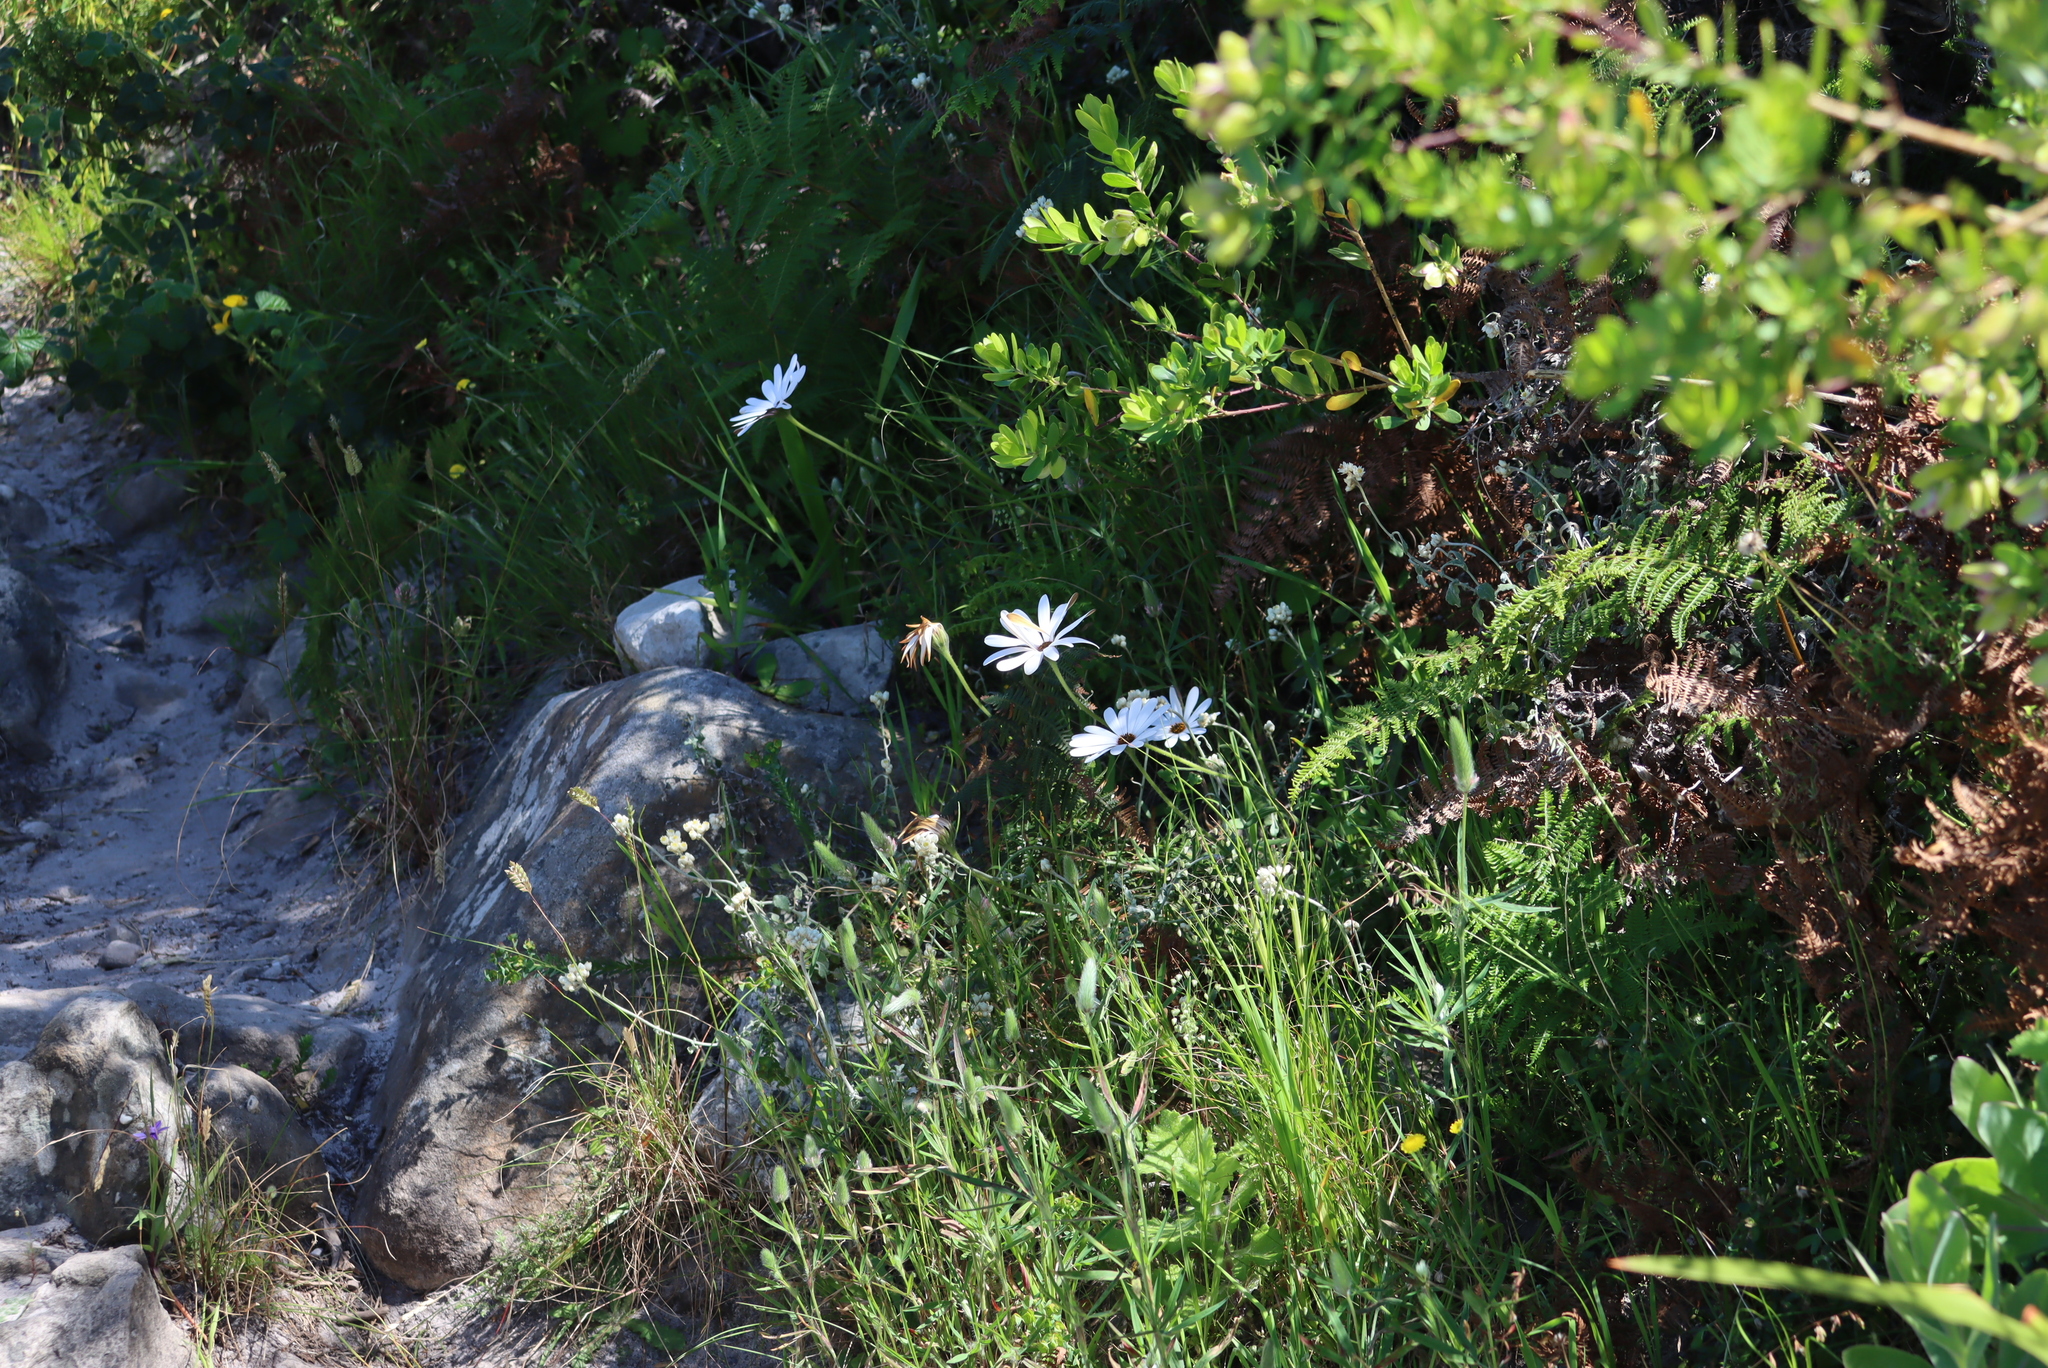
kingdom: Plantae
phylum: Tracheophyta
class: Magnoliopsida
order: Asterales
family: Asteraceae
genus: Dimorphotheca
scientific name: Dimorphotheca nudicaulis
